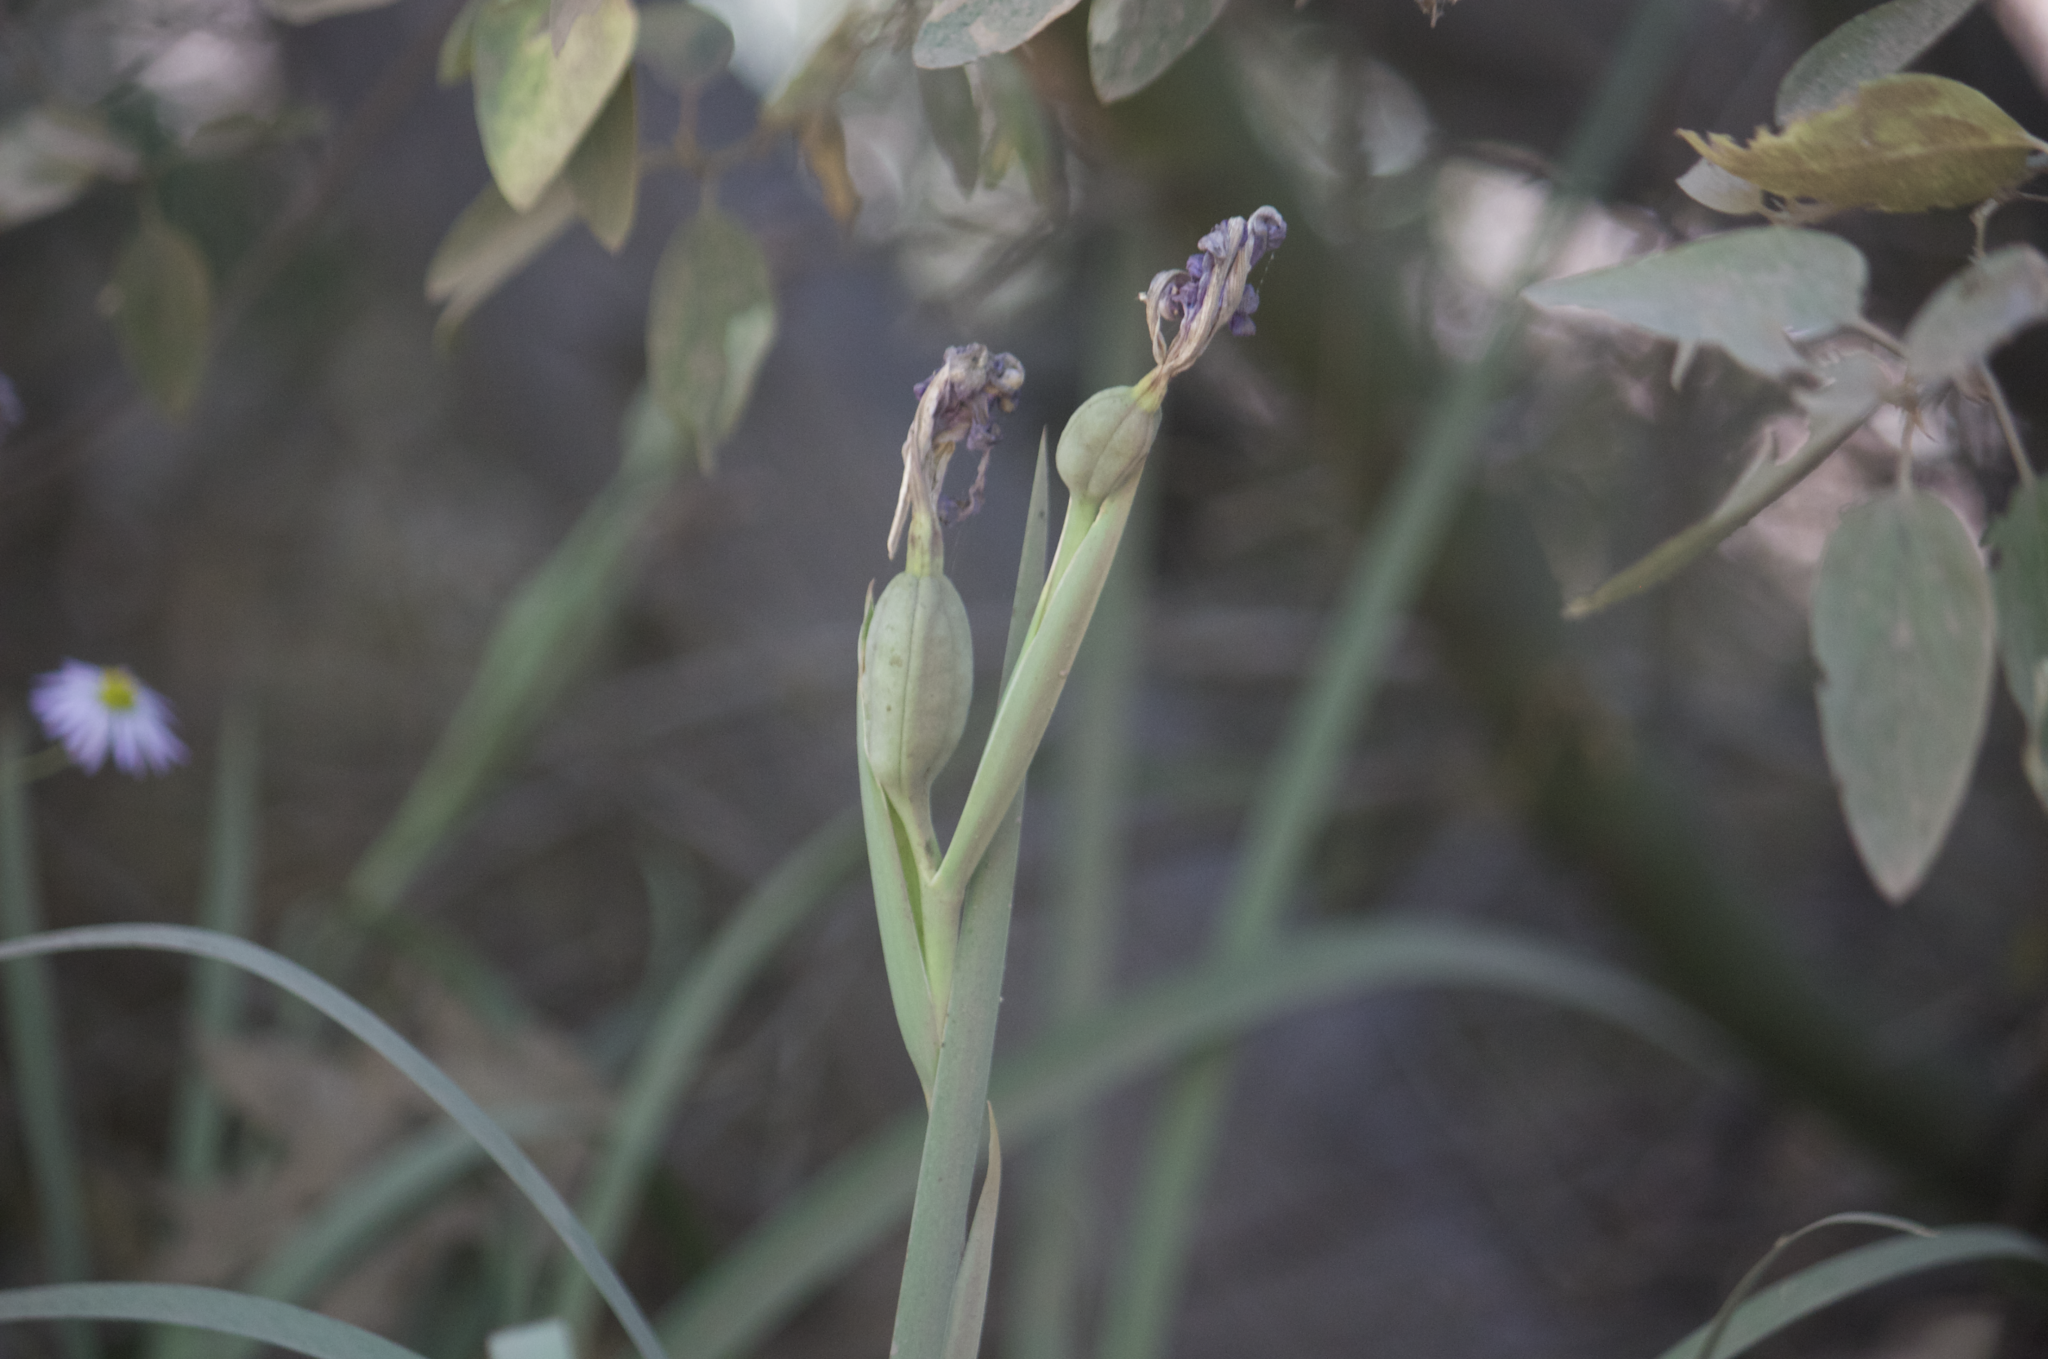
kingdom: Plantae
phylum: Tracheophyta
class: Liliopsida
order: Asparagales
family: Iridaceae
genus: Iris
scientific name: Iris hartwegii
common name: Sierra iris
